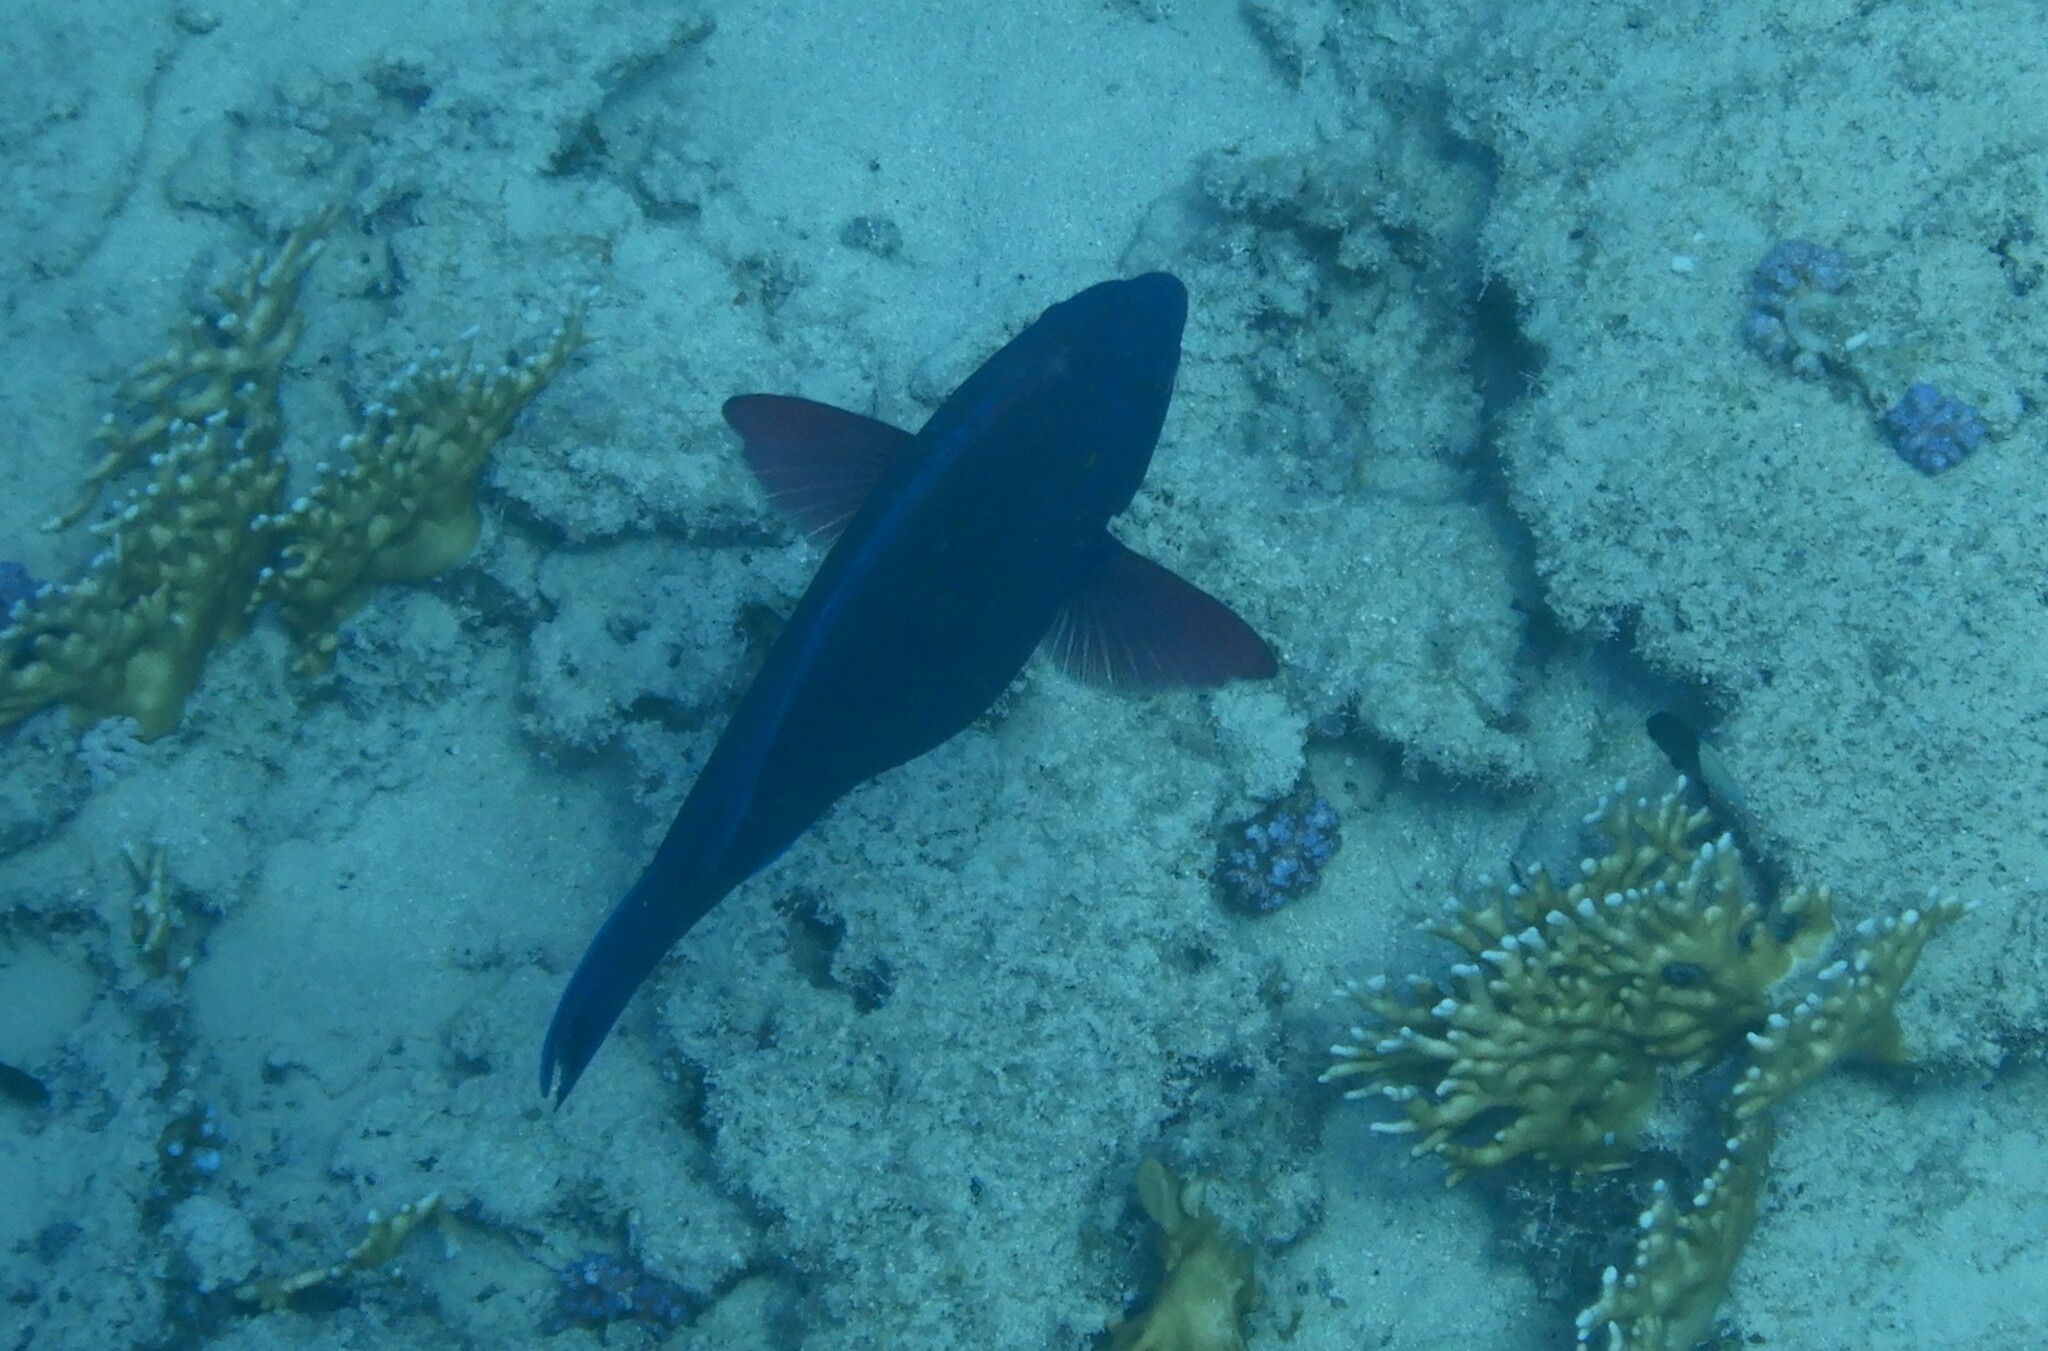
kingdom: Animalia
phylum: Chordata
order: Perciformes
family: Scaridae
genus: Scarus
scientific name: Scarus niger
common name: Dusky parrotfish
